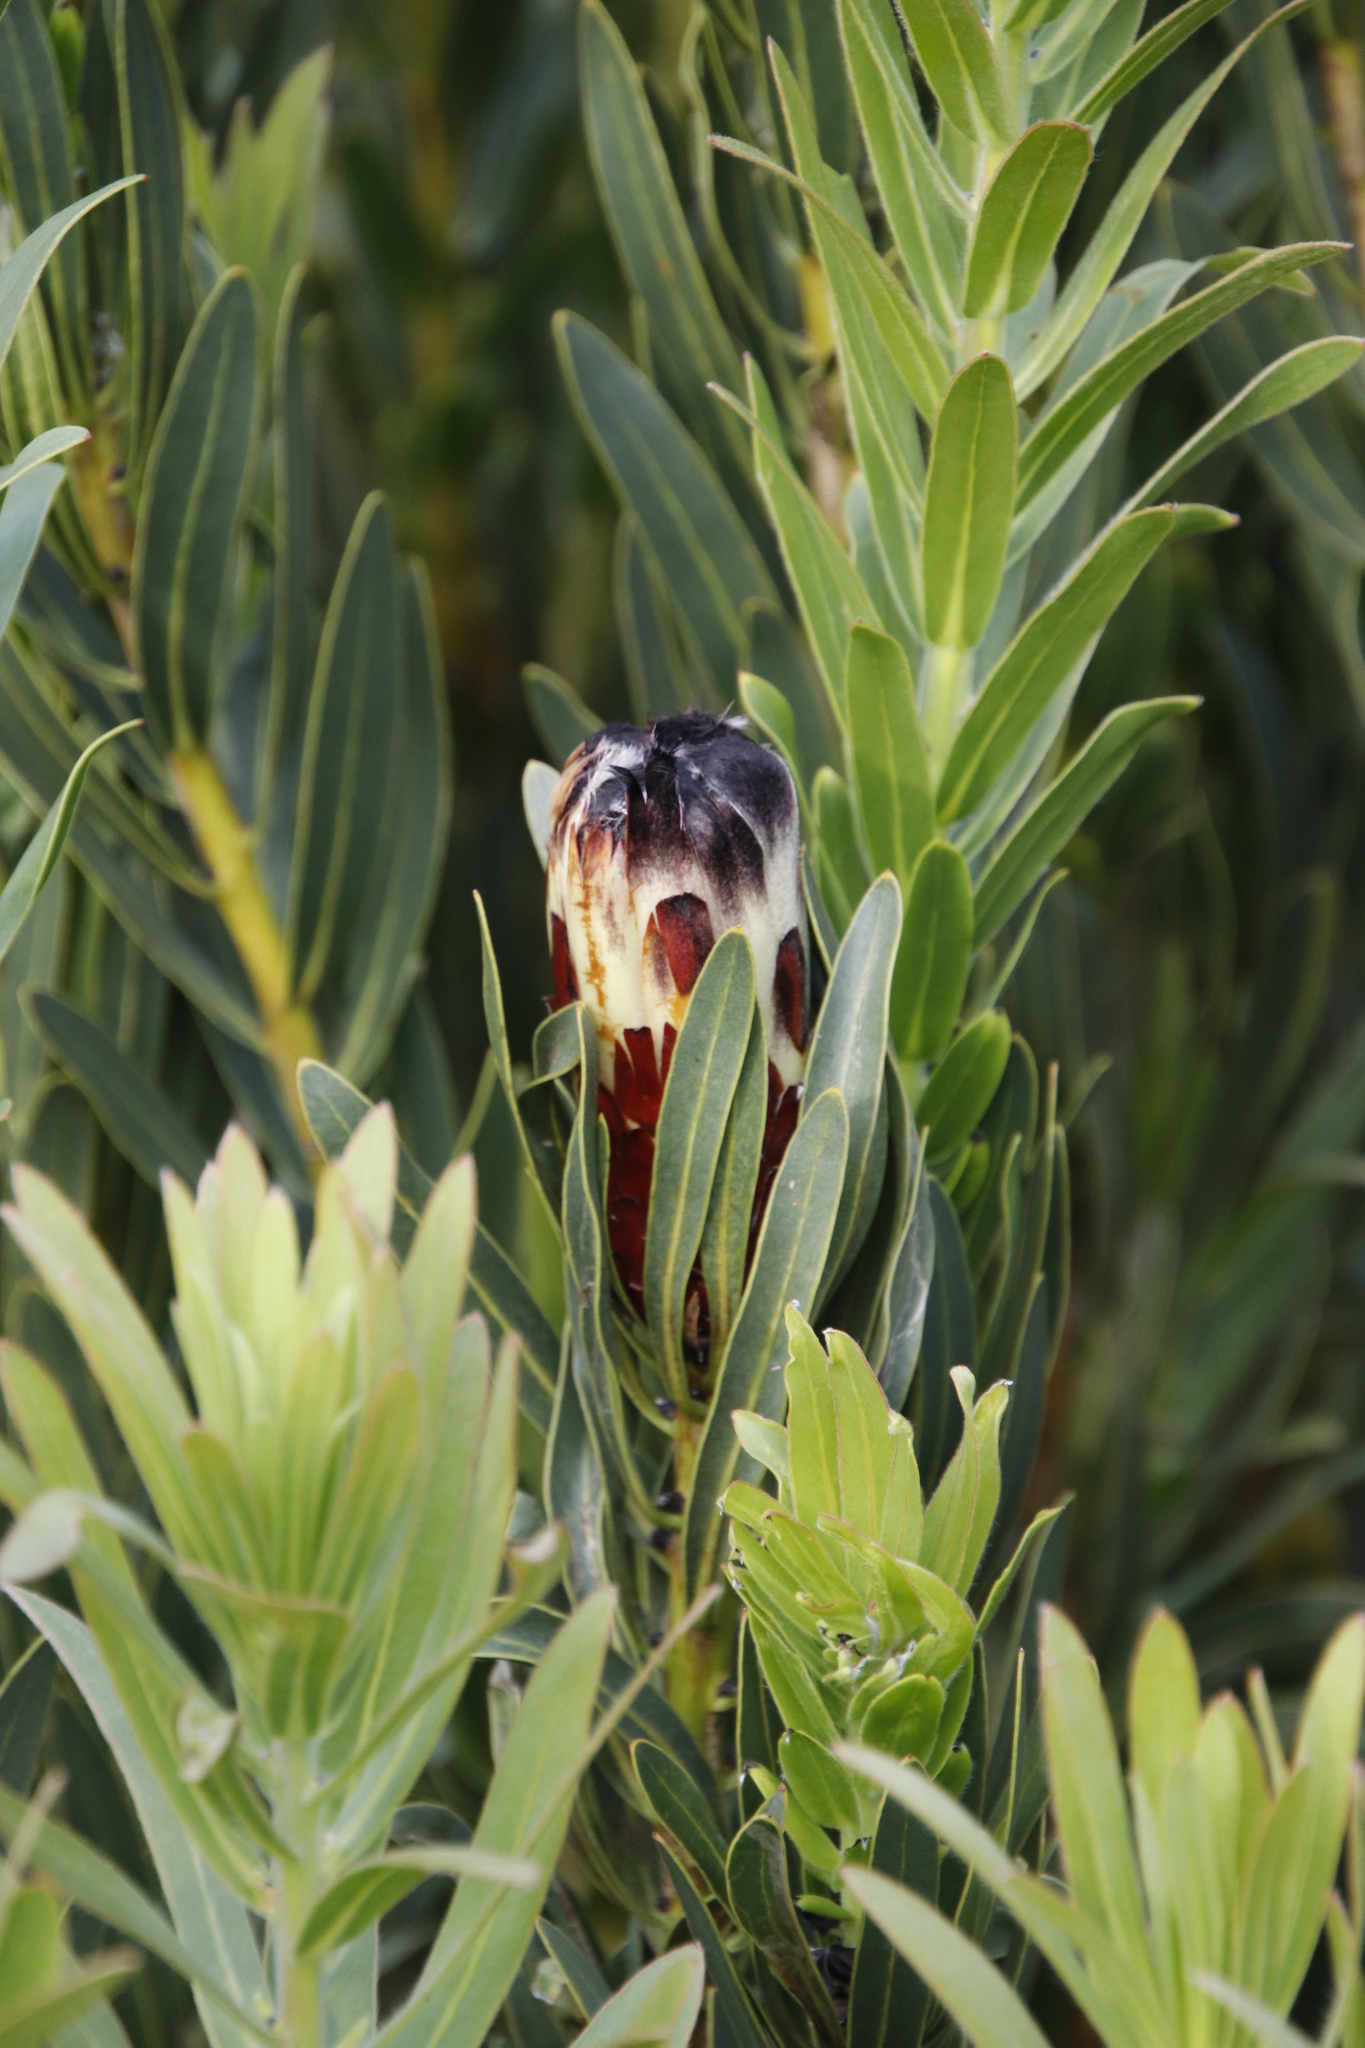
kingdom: Plantae
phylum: Tracheophyta
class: Magnoliopsida
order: Proteales
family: Proteaceae
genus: Protea
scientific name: Protea lepidocarpodendron
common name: Black-bearded protea
